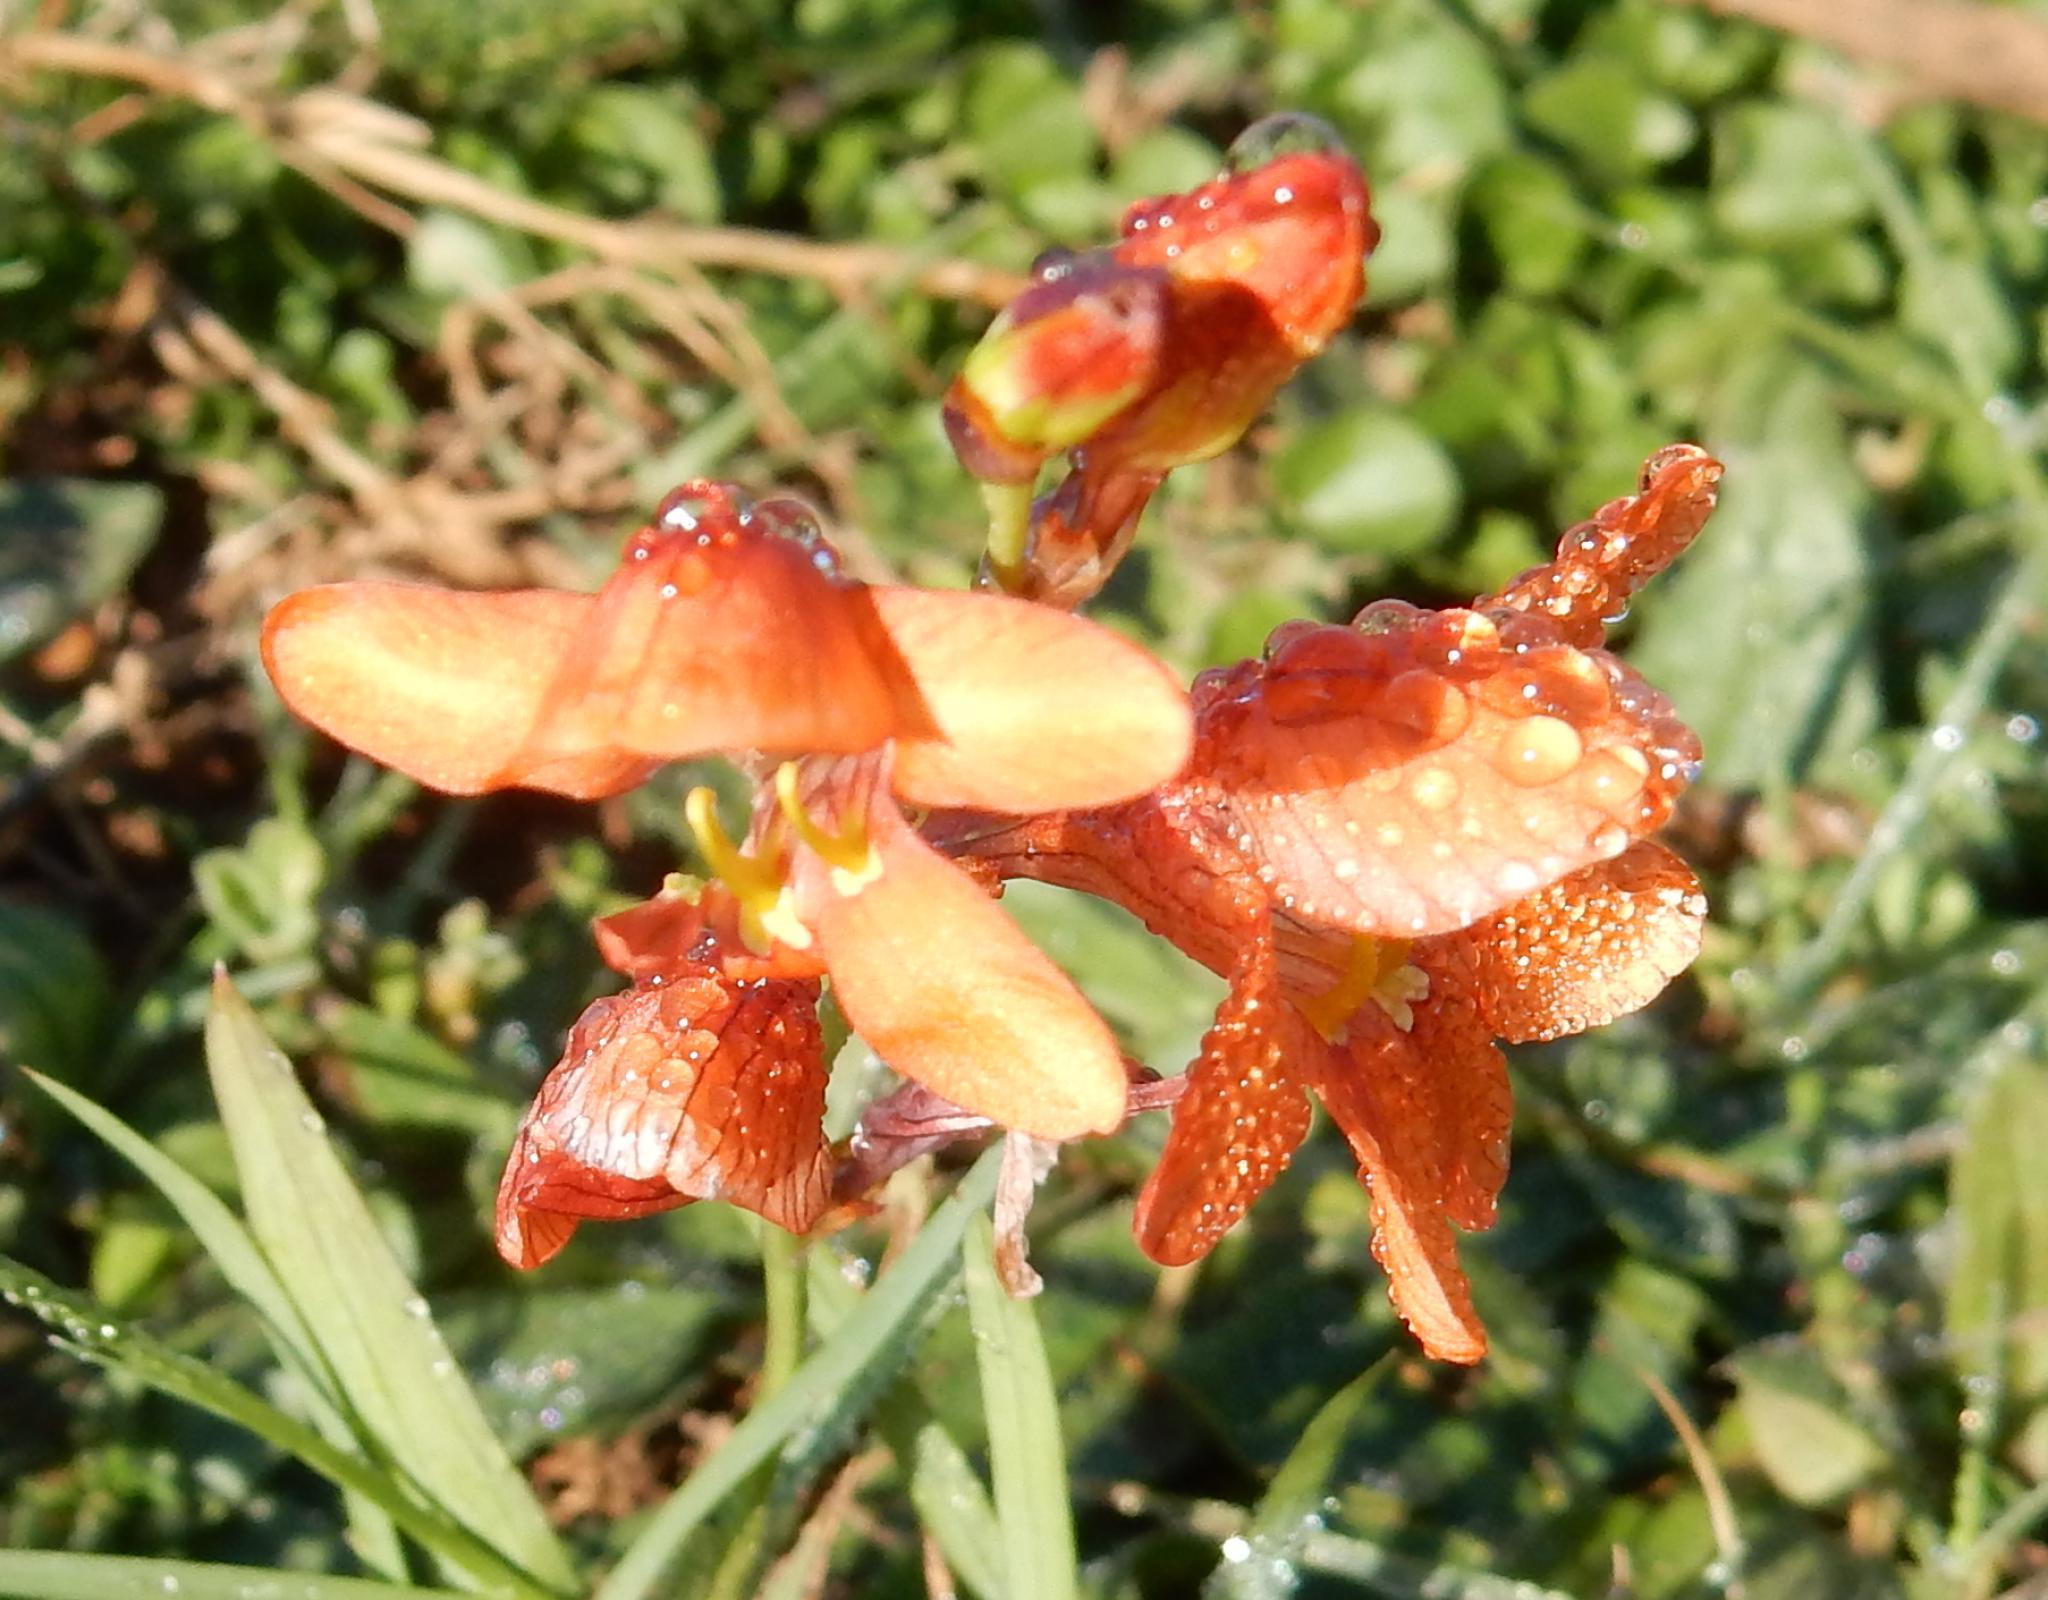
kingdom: Plantae
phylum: Tracheophyta
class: Liliopsida
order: Asparagales
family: Iridaceae
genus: Tritonia
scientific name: Tritonia laxifolia
